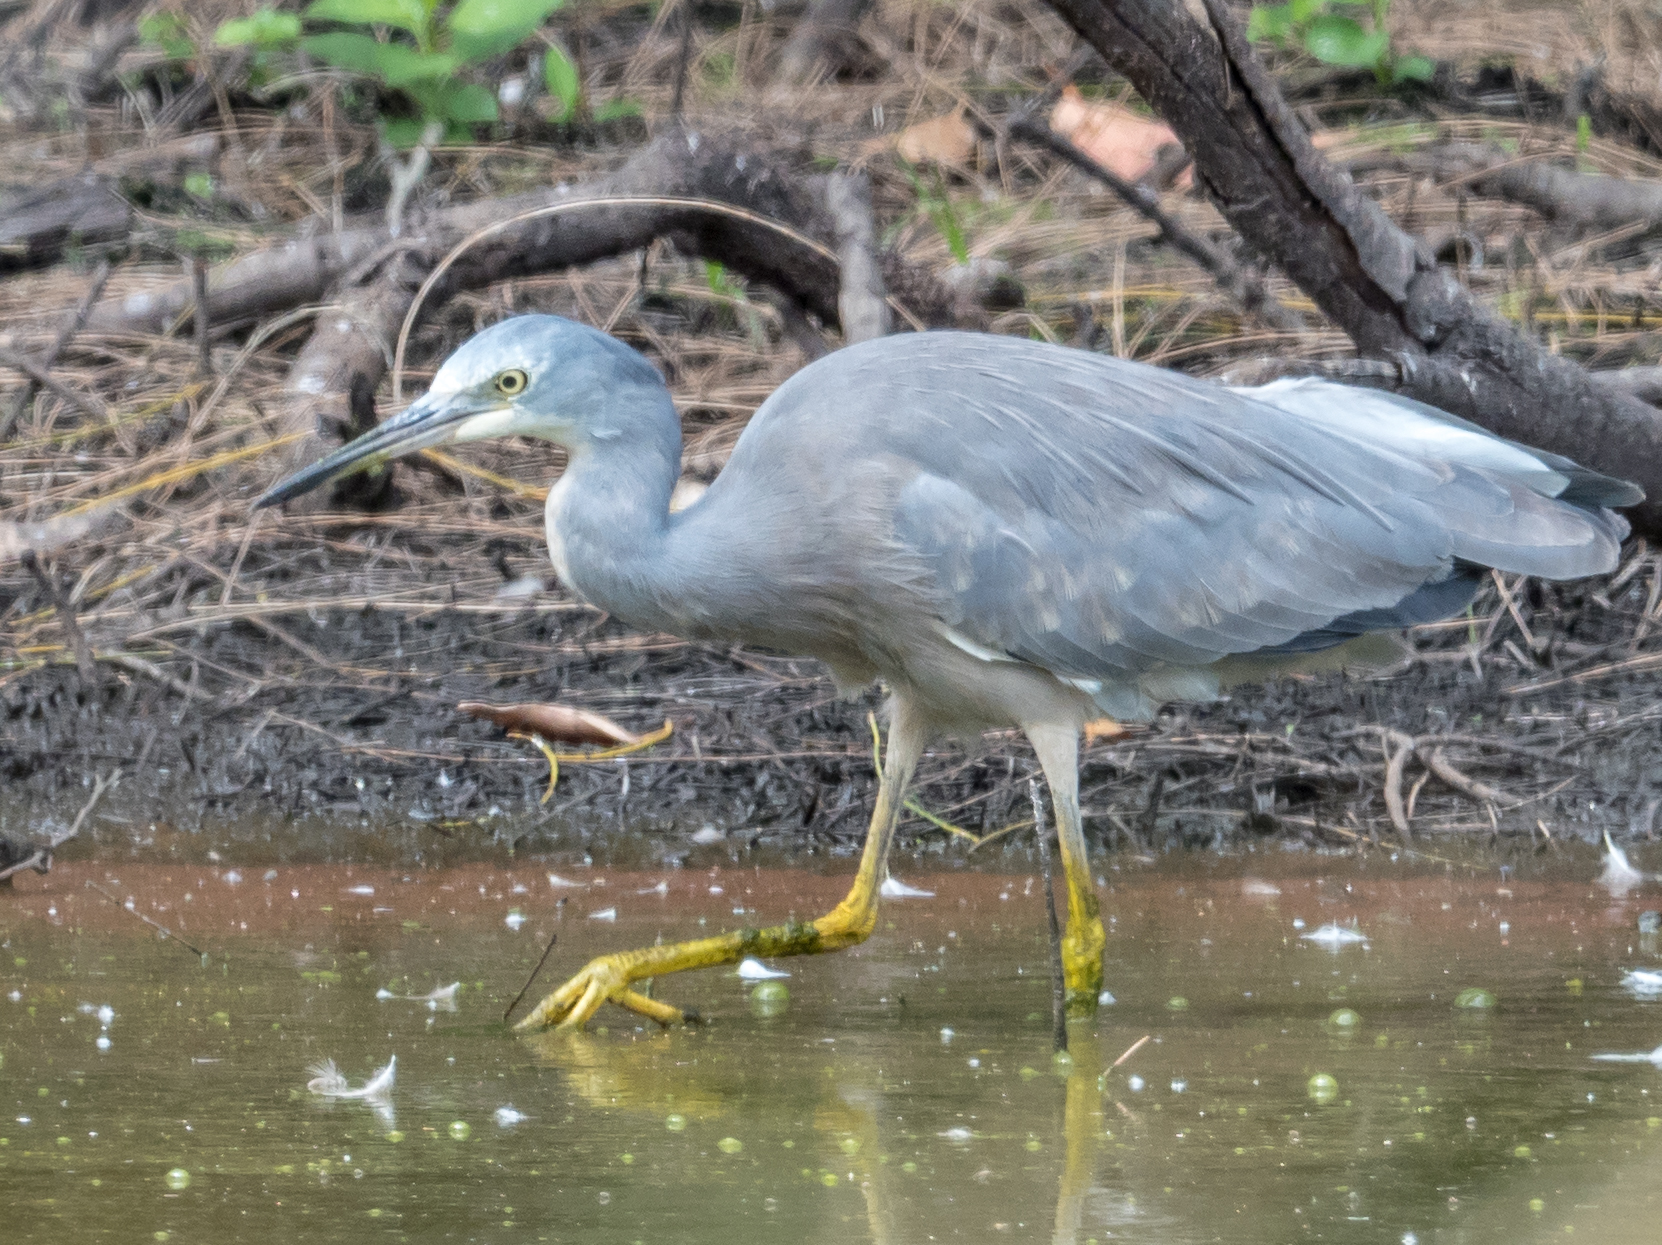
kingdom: Animalia
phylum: Chordata
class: Aves
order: Pelecaniformes
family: Ardeidae
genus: Egretta
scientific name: Egretta novaehollandiae
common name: White-faced heron
